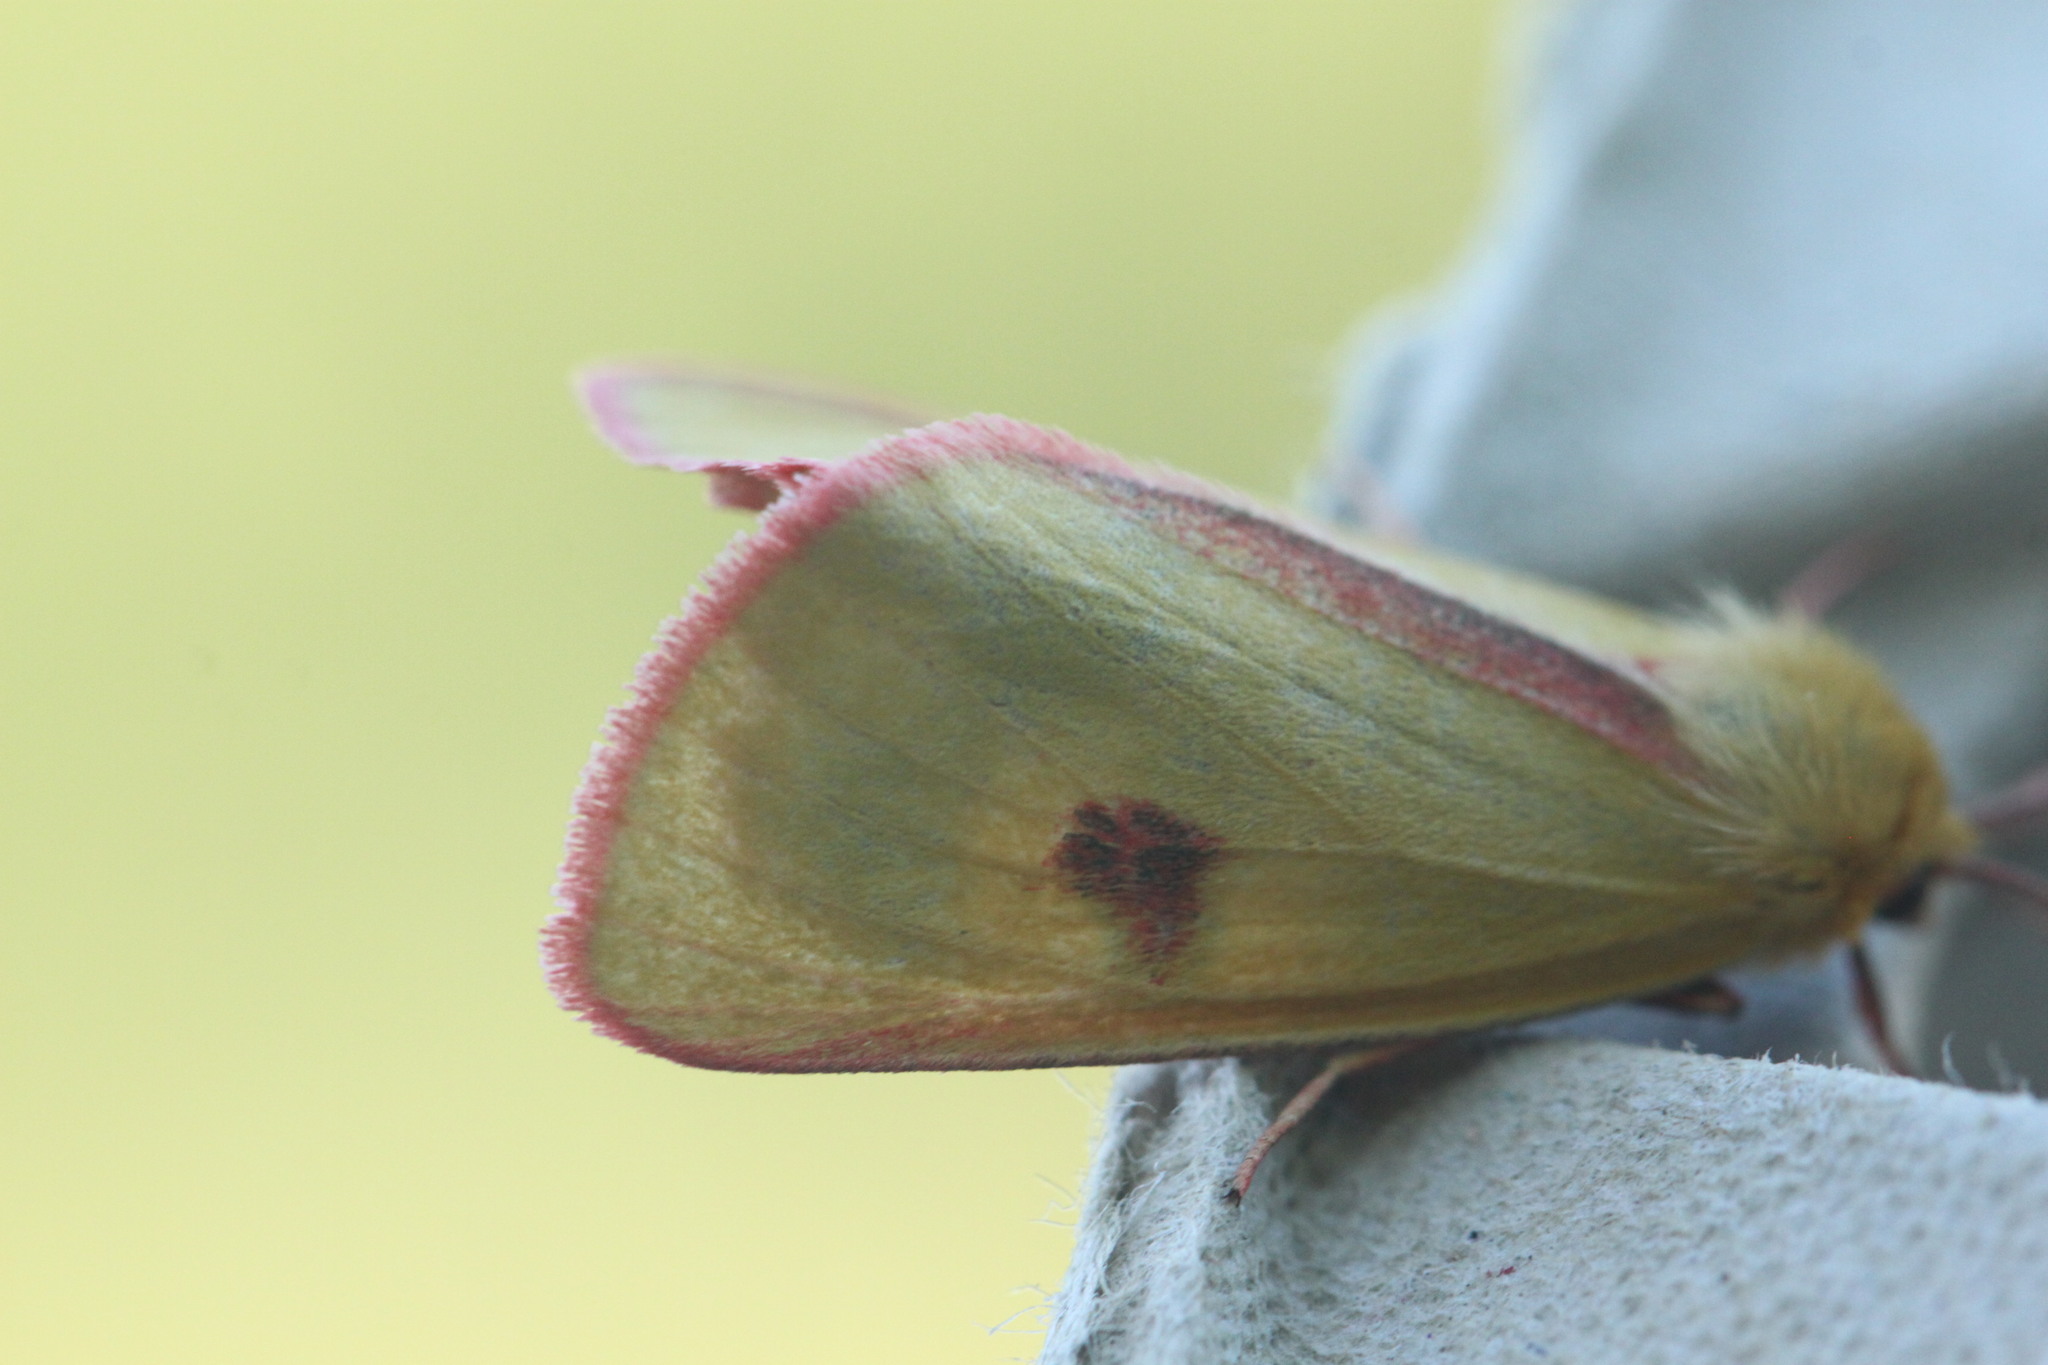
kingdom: Animalia
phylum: Arthropoda
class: Insecta
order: Lepidoptera
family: Erebidae
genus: Diacrisia
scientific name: Diacrisia sannio
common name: Clouded buff
